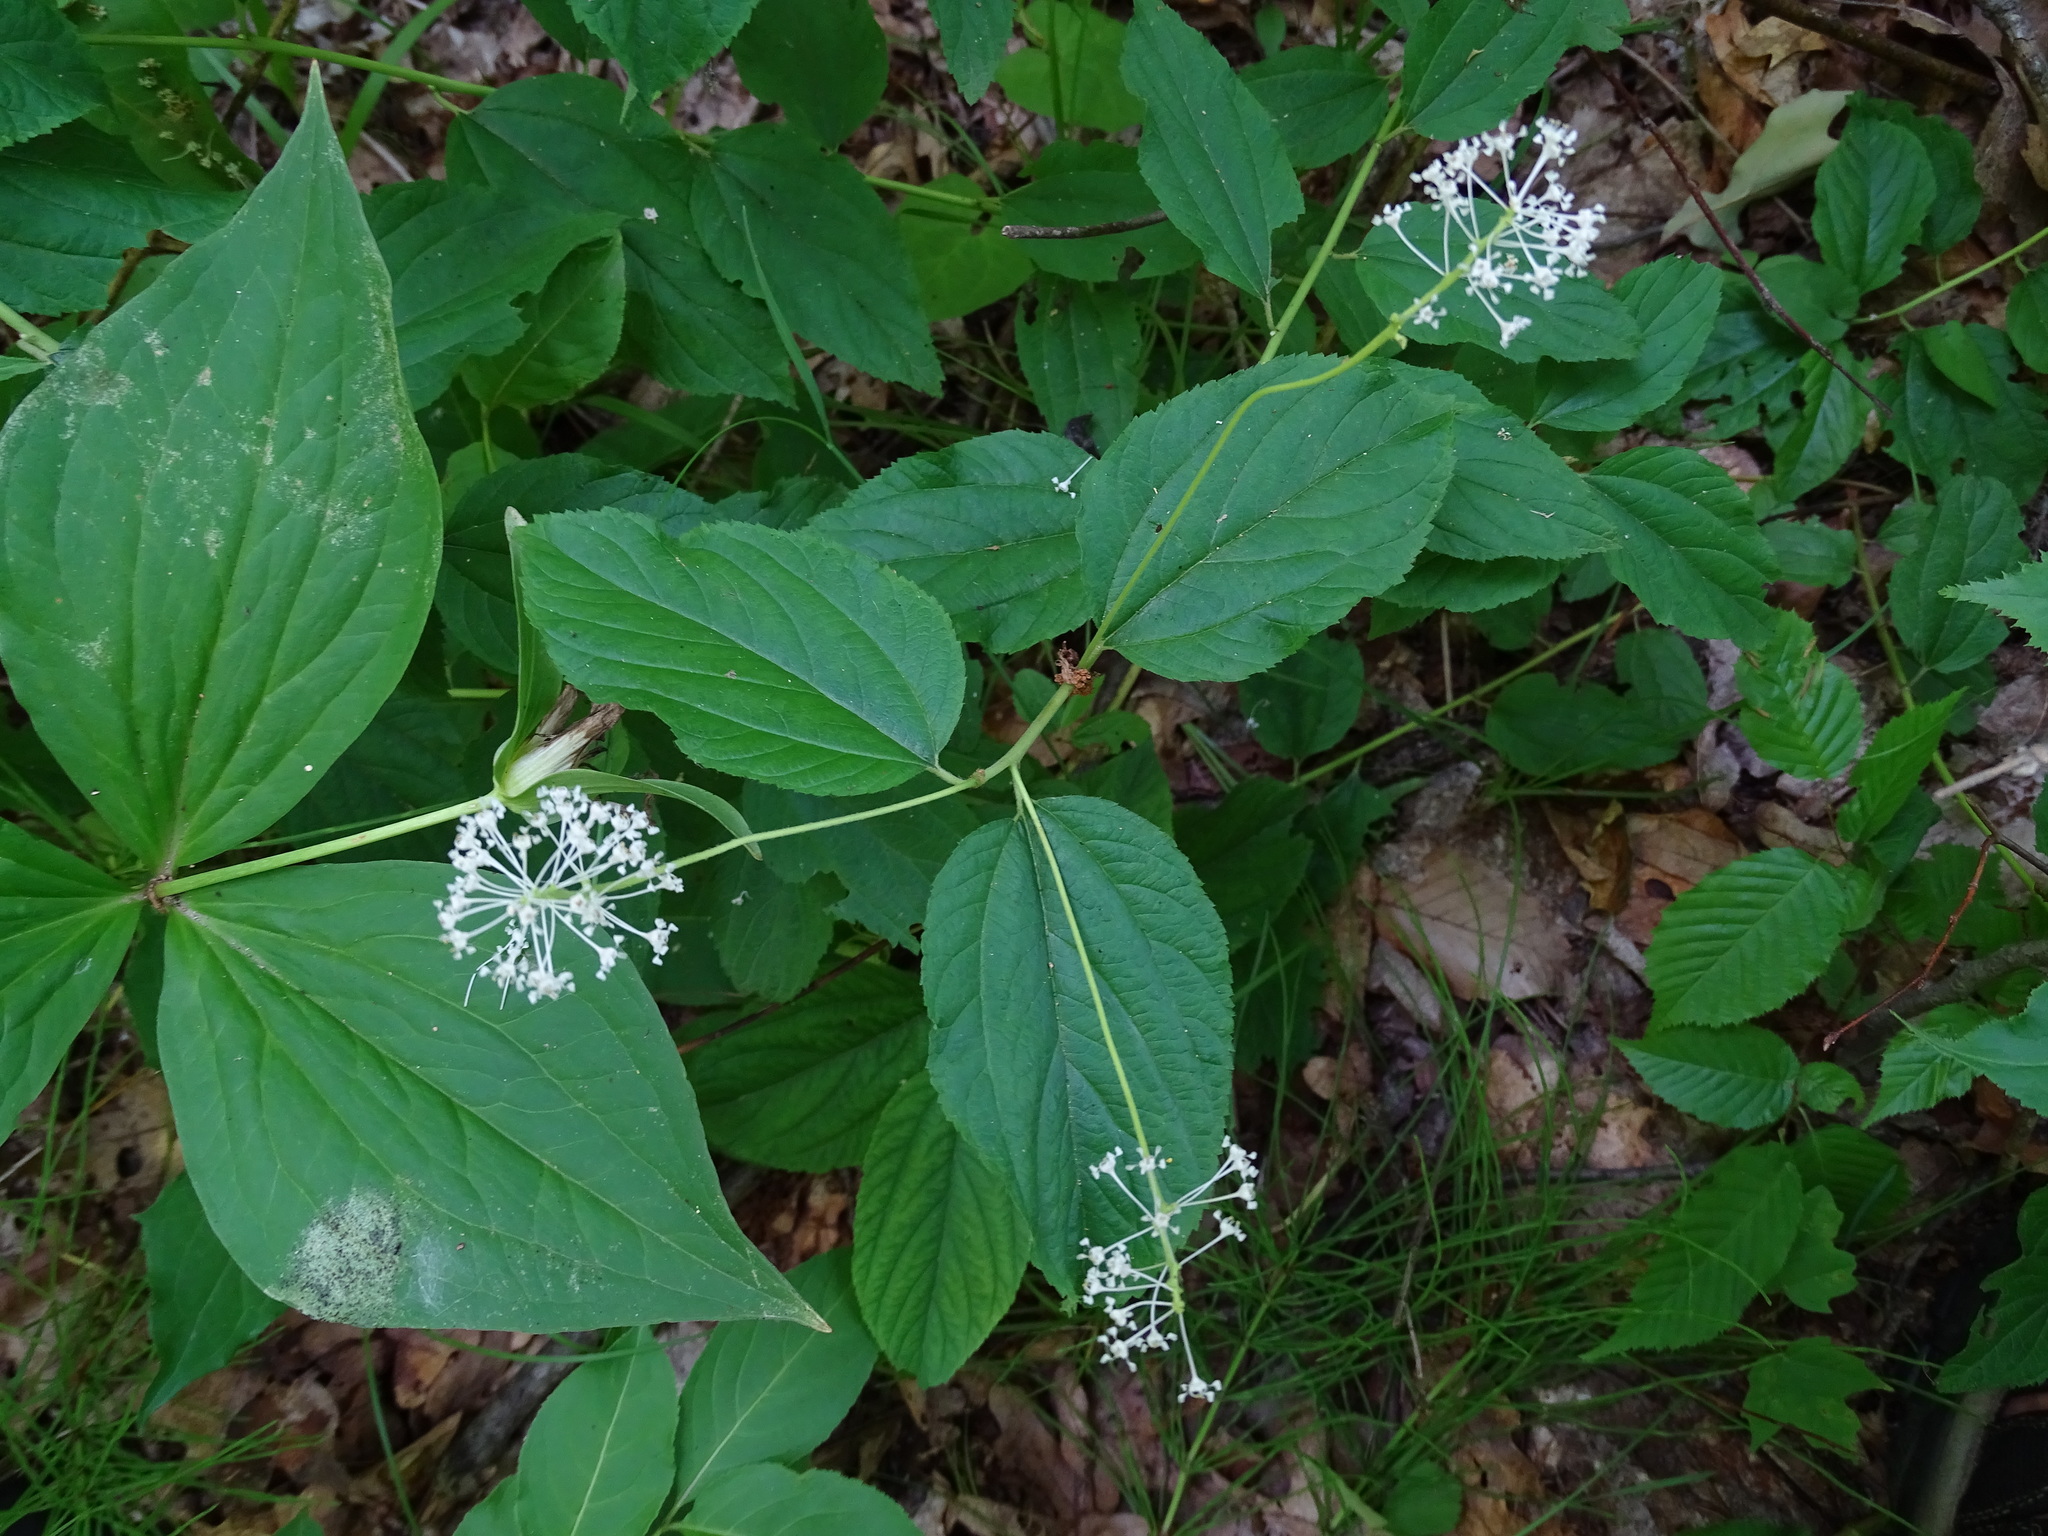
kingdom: Plantae
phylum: Tracheophyta
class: Magnoliopsida
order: Rosales
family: Rhamnaceae
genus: Ceanothus
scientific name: Ceanothus americanus
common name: Redroot
